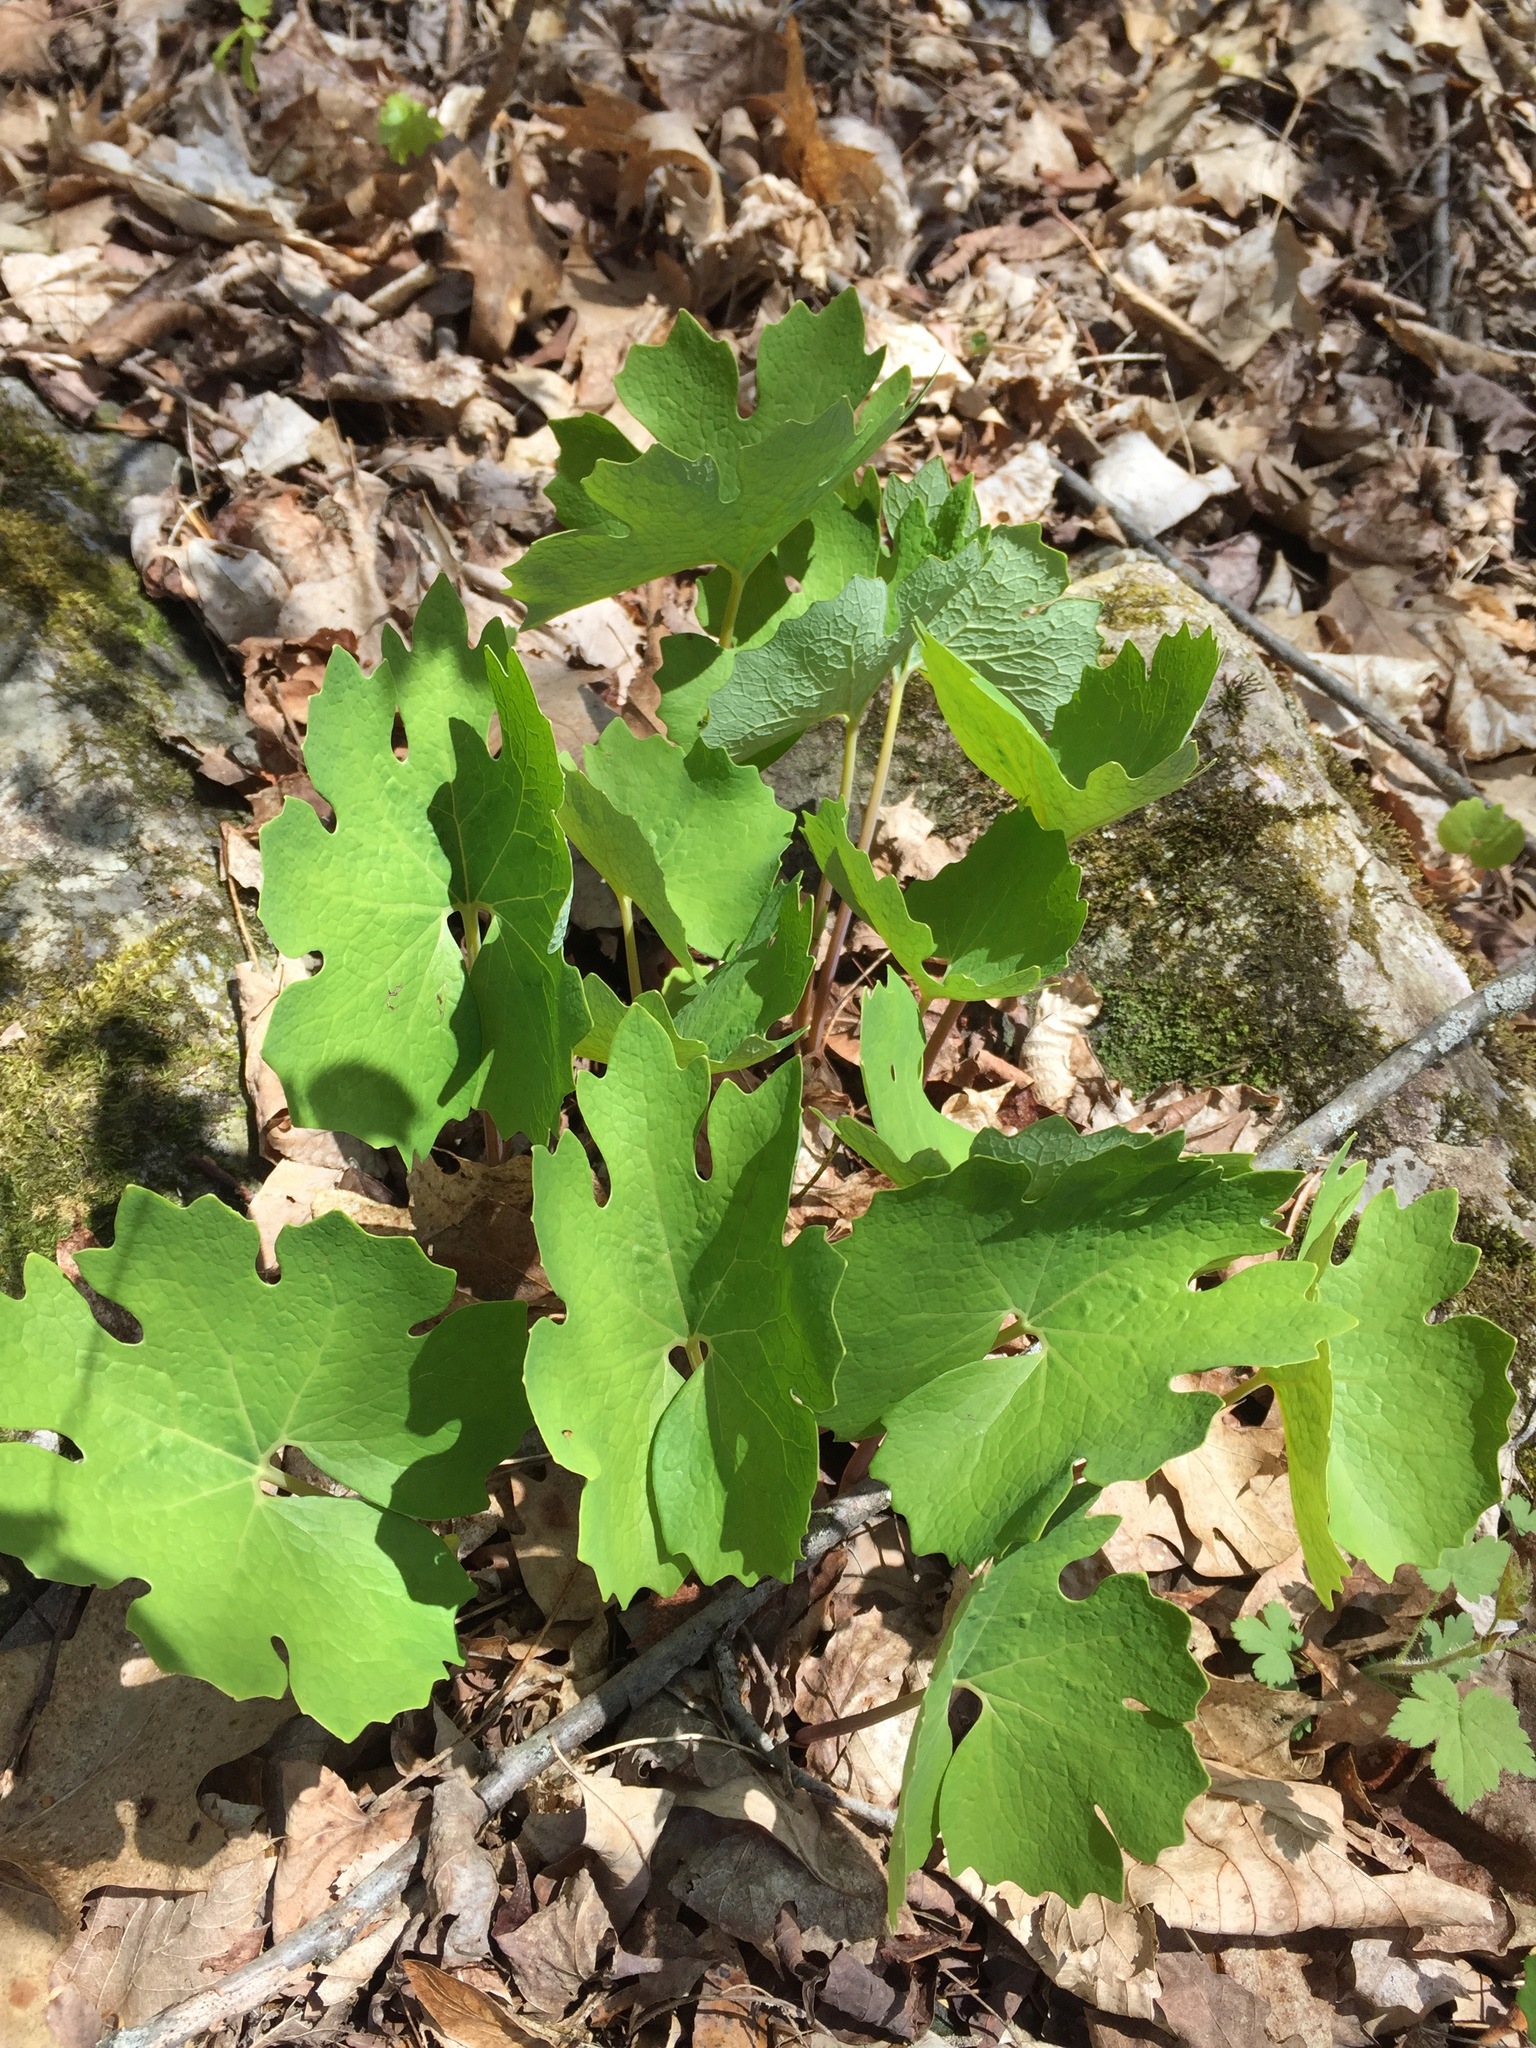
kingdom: Plantae
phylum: Tracheophyta
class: Magnoliopsida
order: Ranunculales
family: Papaveraceae
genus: Sanguinaria
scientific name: Sanguinaria canadensis
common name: Bloodroot
